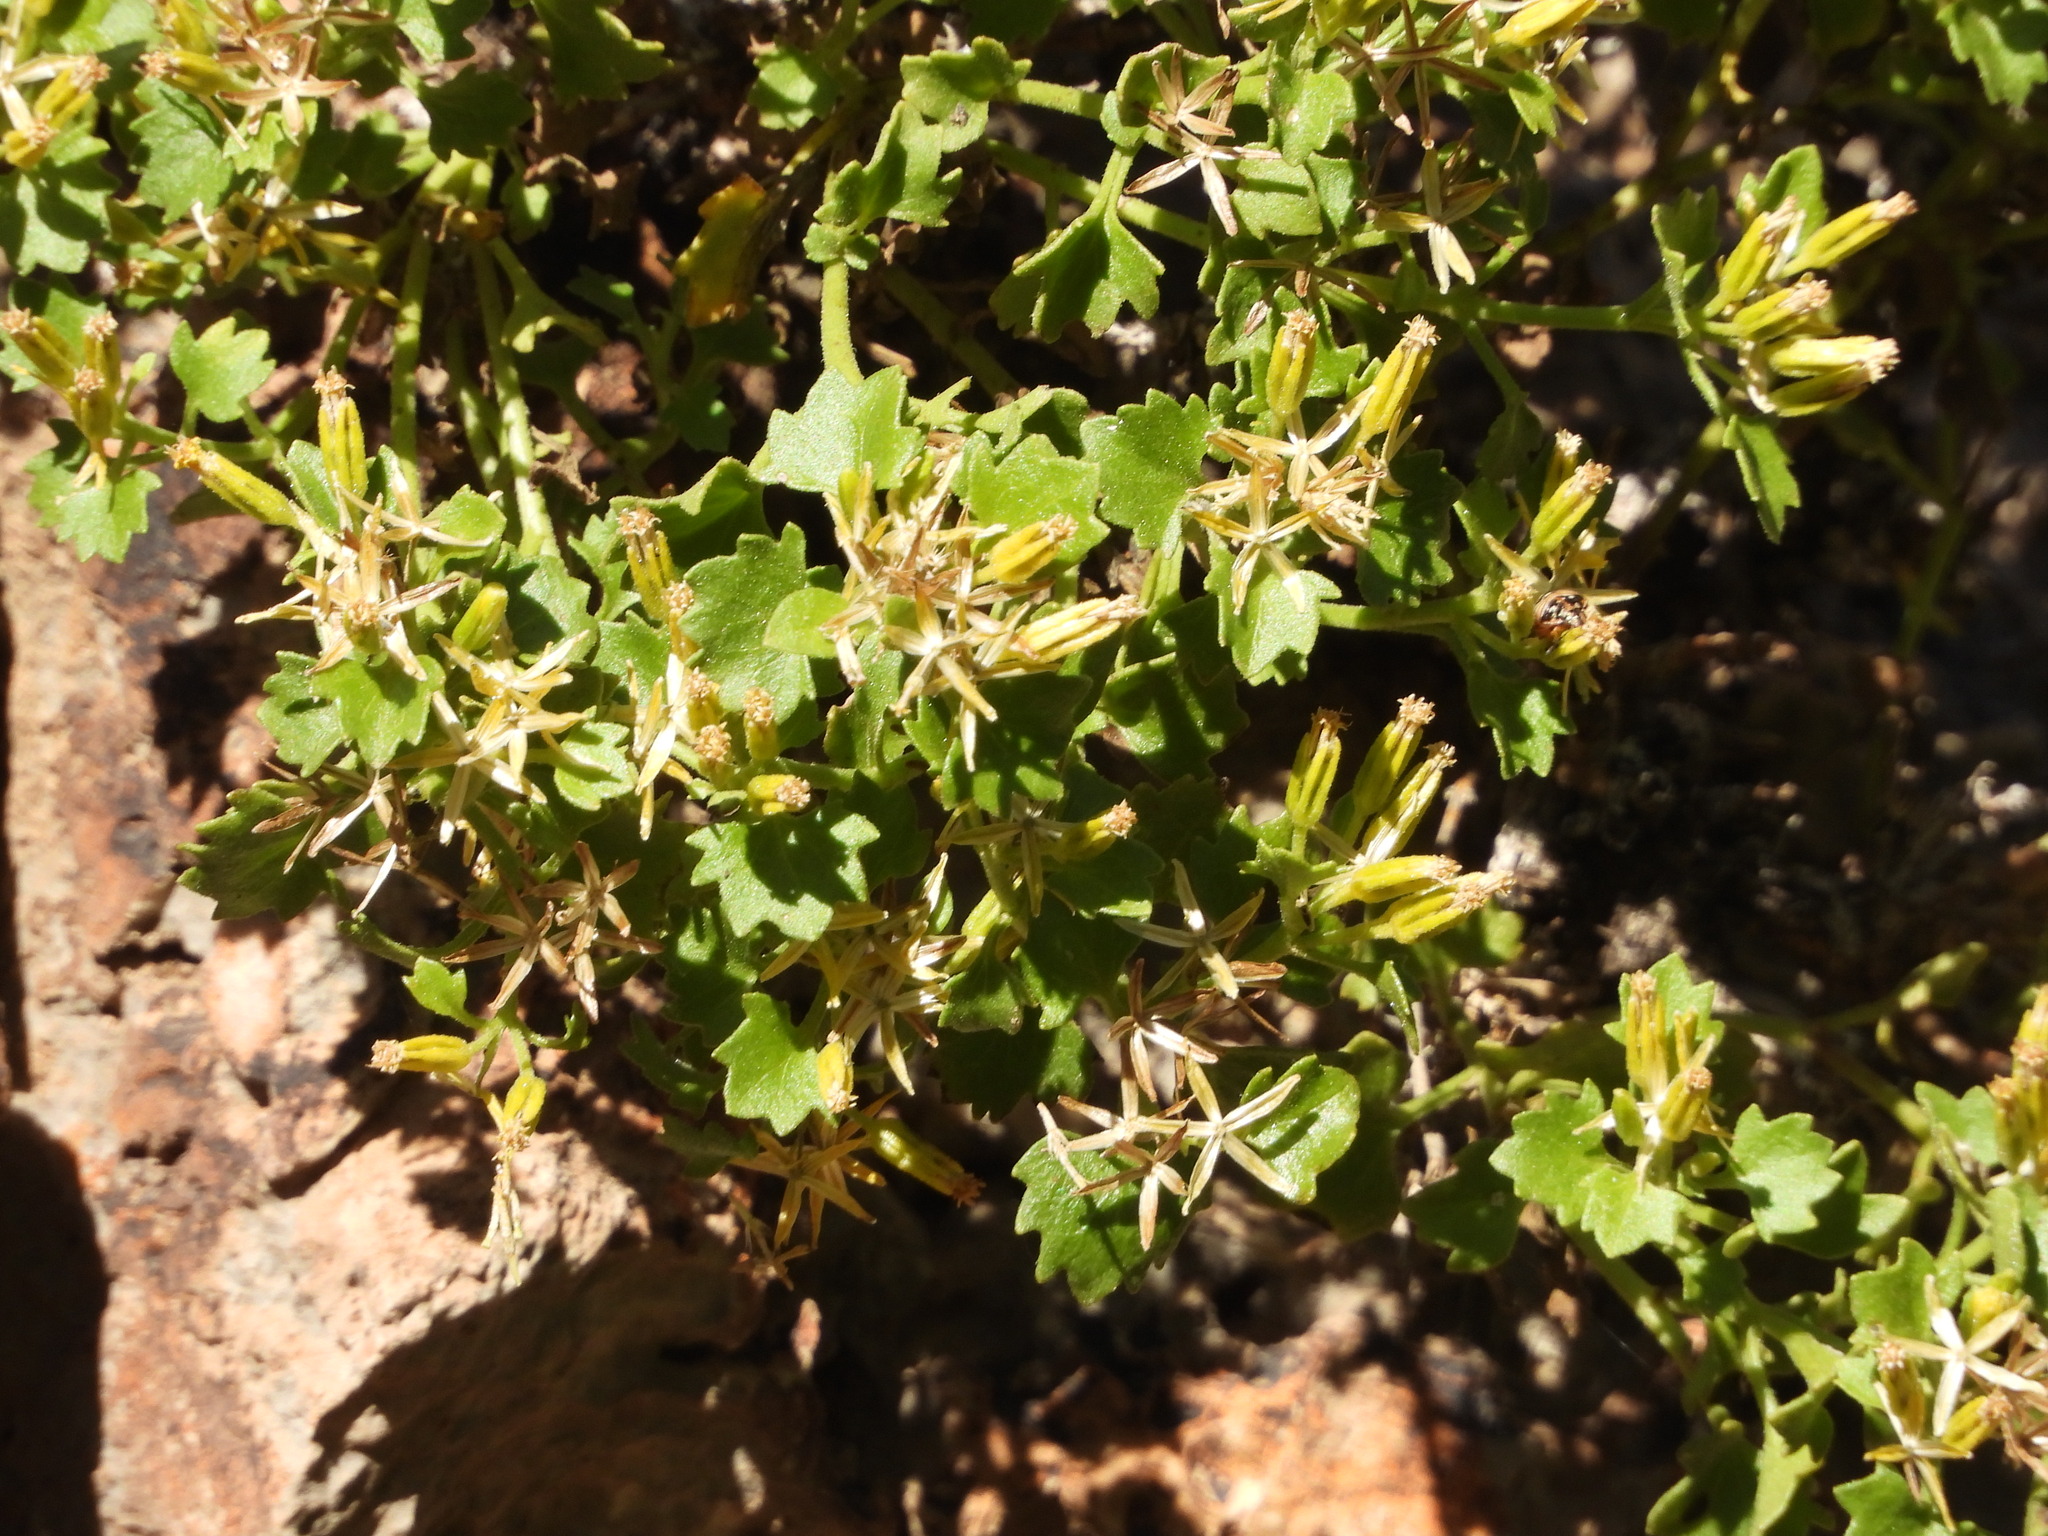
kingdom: Plantae
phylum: Tracheophyta
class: Magnoliopsida
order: Asterales
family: Asteraceae
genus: Laphamia
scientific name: Laphamia quinqueflora
